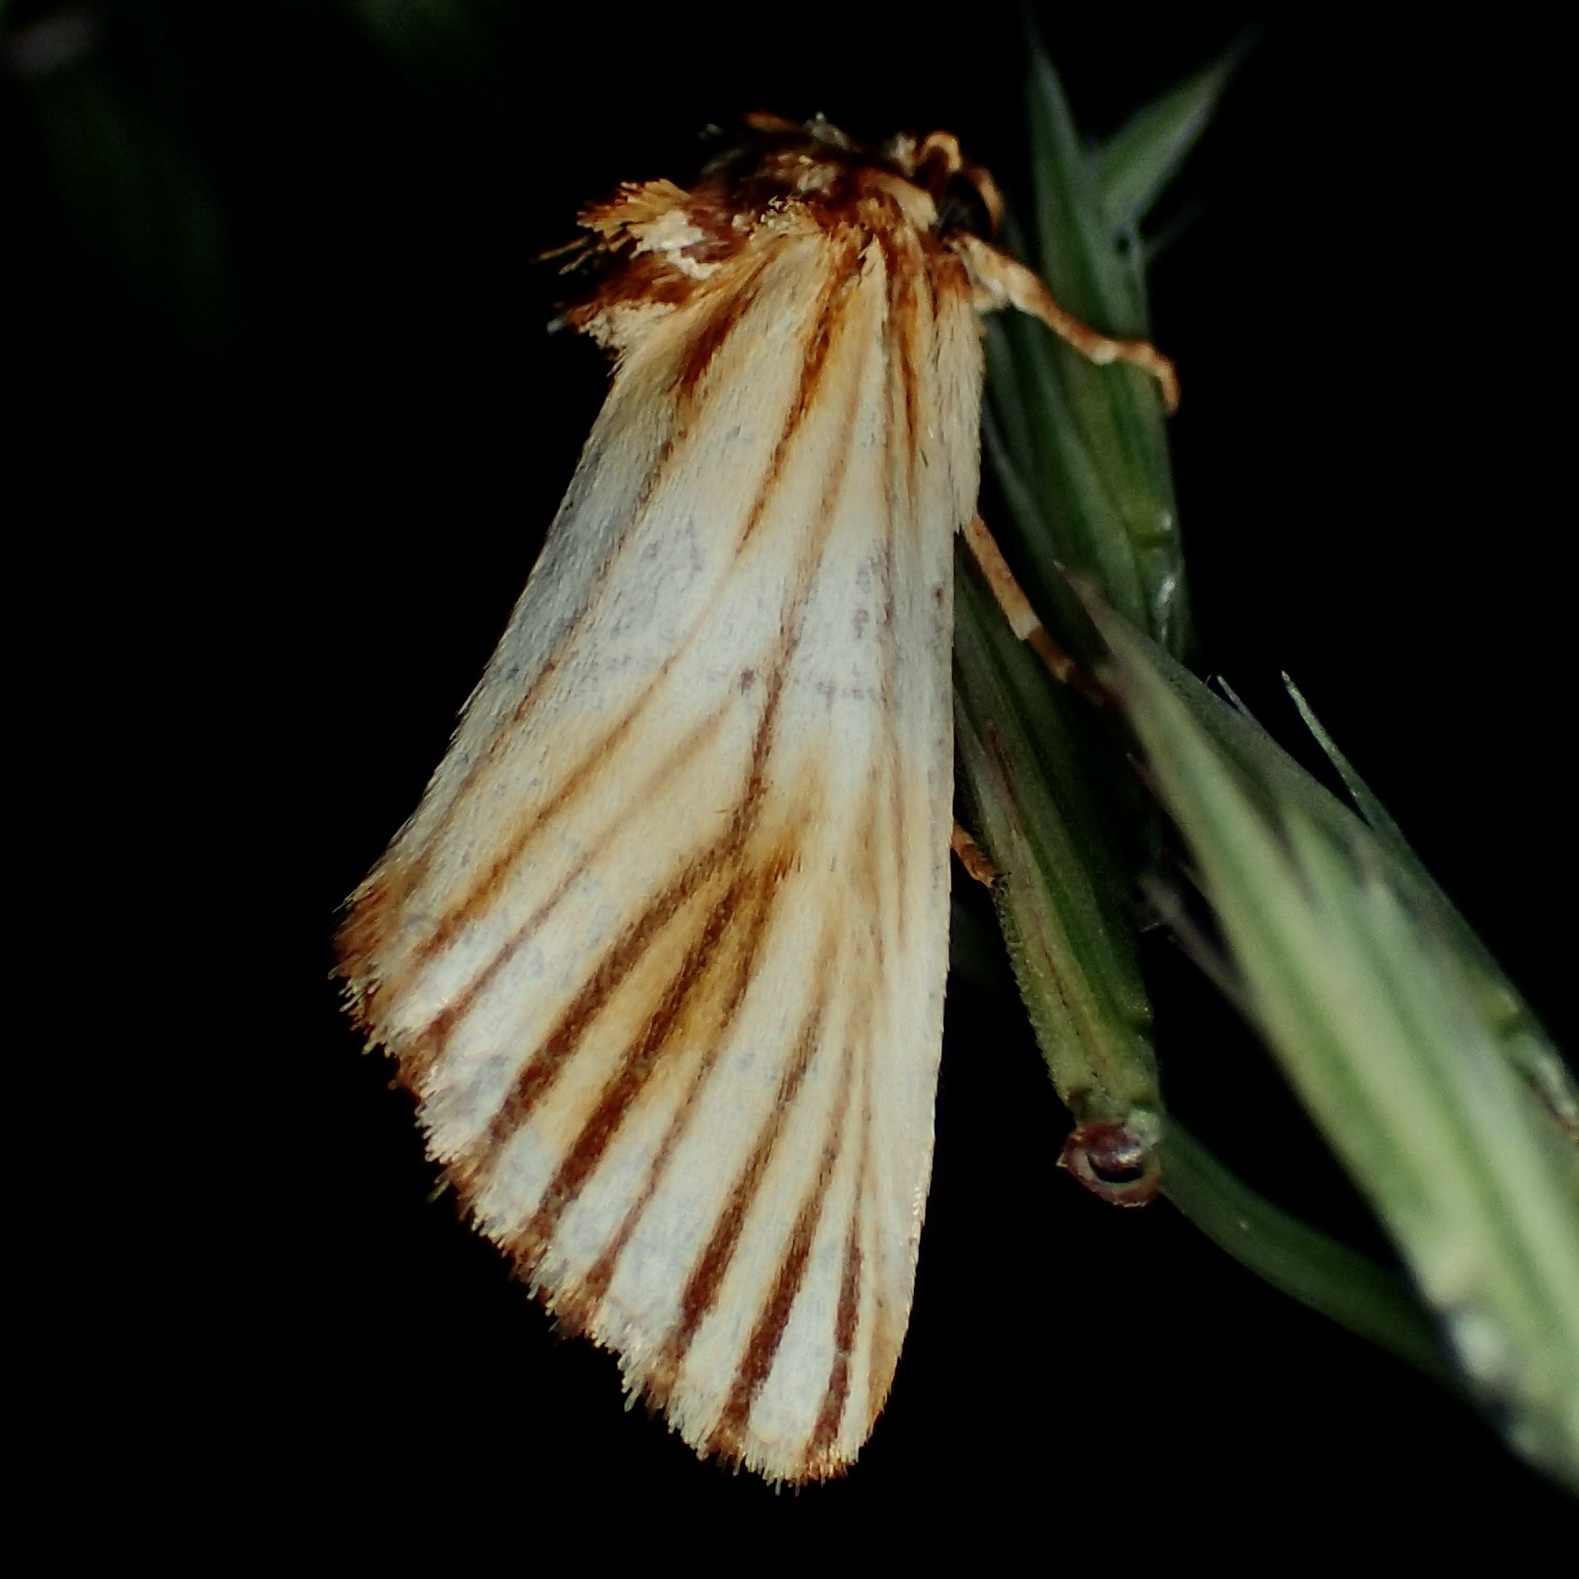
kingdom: Animalia
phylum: Arthropoda
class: Insecta
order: Lepidoptera
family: Noctuidae
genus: Antaplaga
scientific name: Antaplaga discistriga
